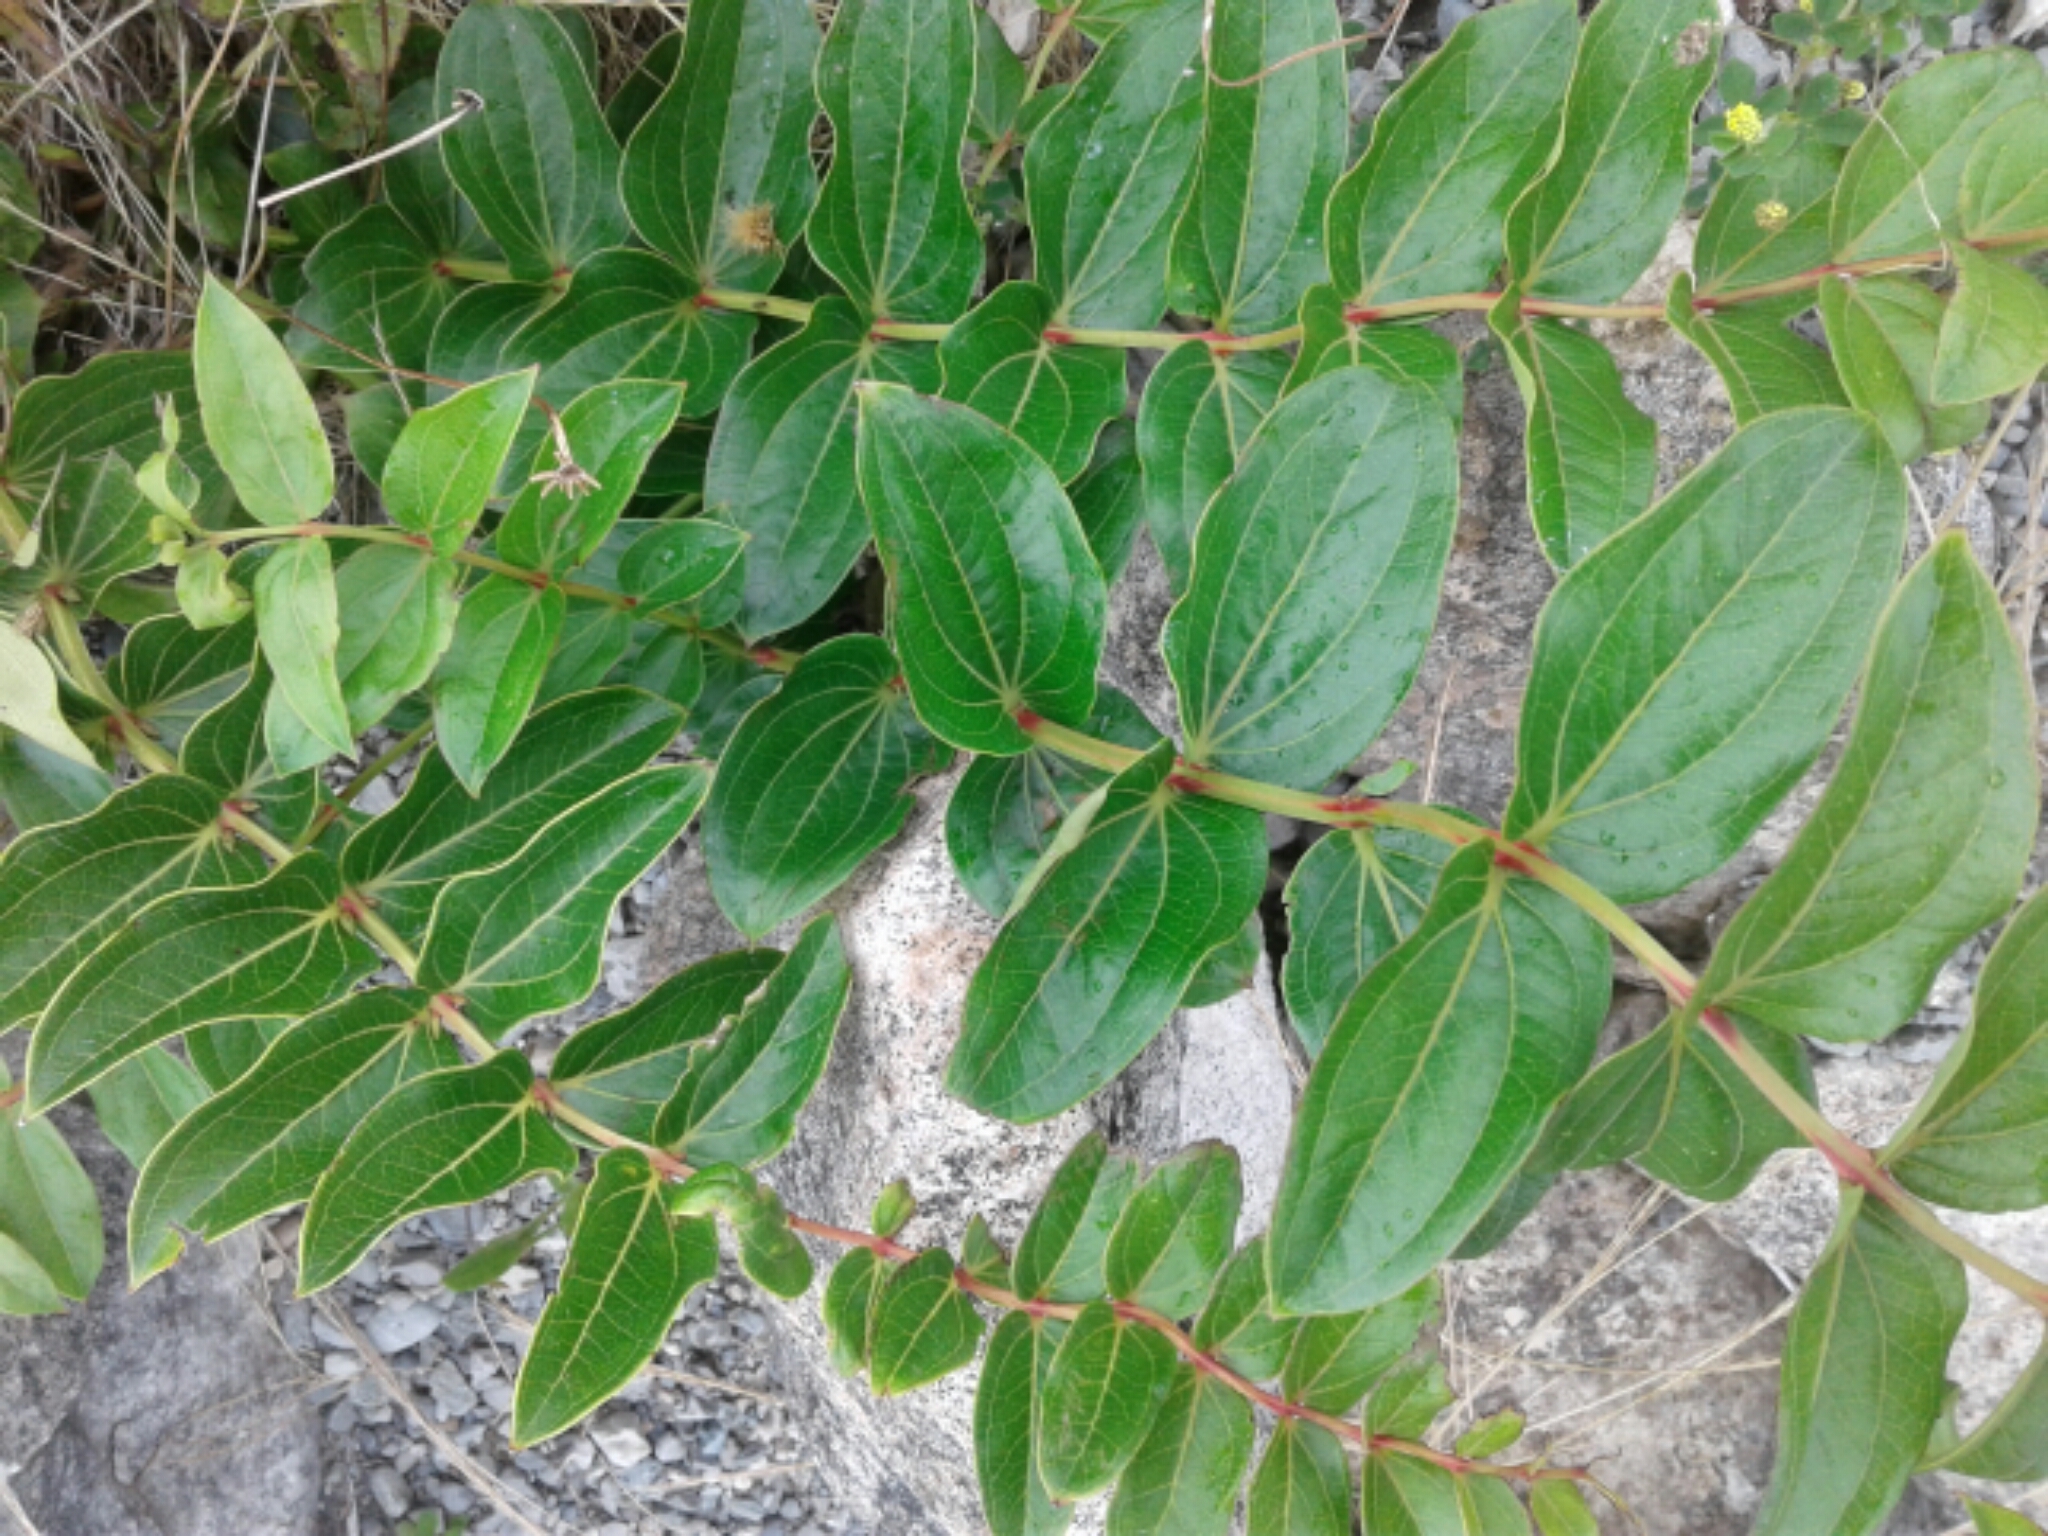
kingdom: Plantae
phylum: Tracheophyta
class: Magnoliopsida
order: Cucurbitales
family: Coriariaceae
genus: Coriaria
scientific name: Coriaria
